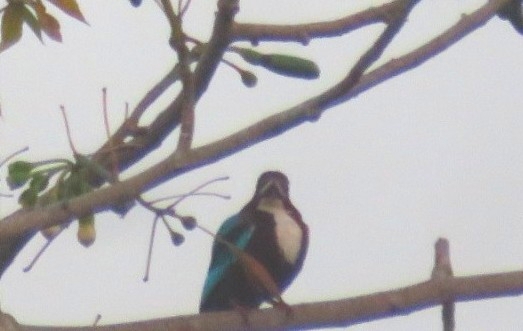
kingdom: Animalia
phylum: Chordata
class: Aves
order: Coraciiformes
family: Alcedinidae
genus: Halcyon
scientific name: Halcyon smyrnensis
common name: White-throated kingfisher
